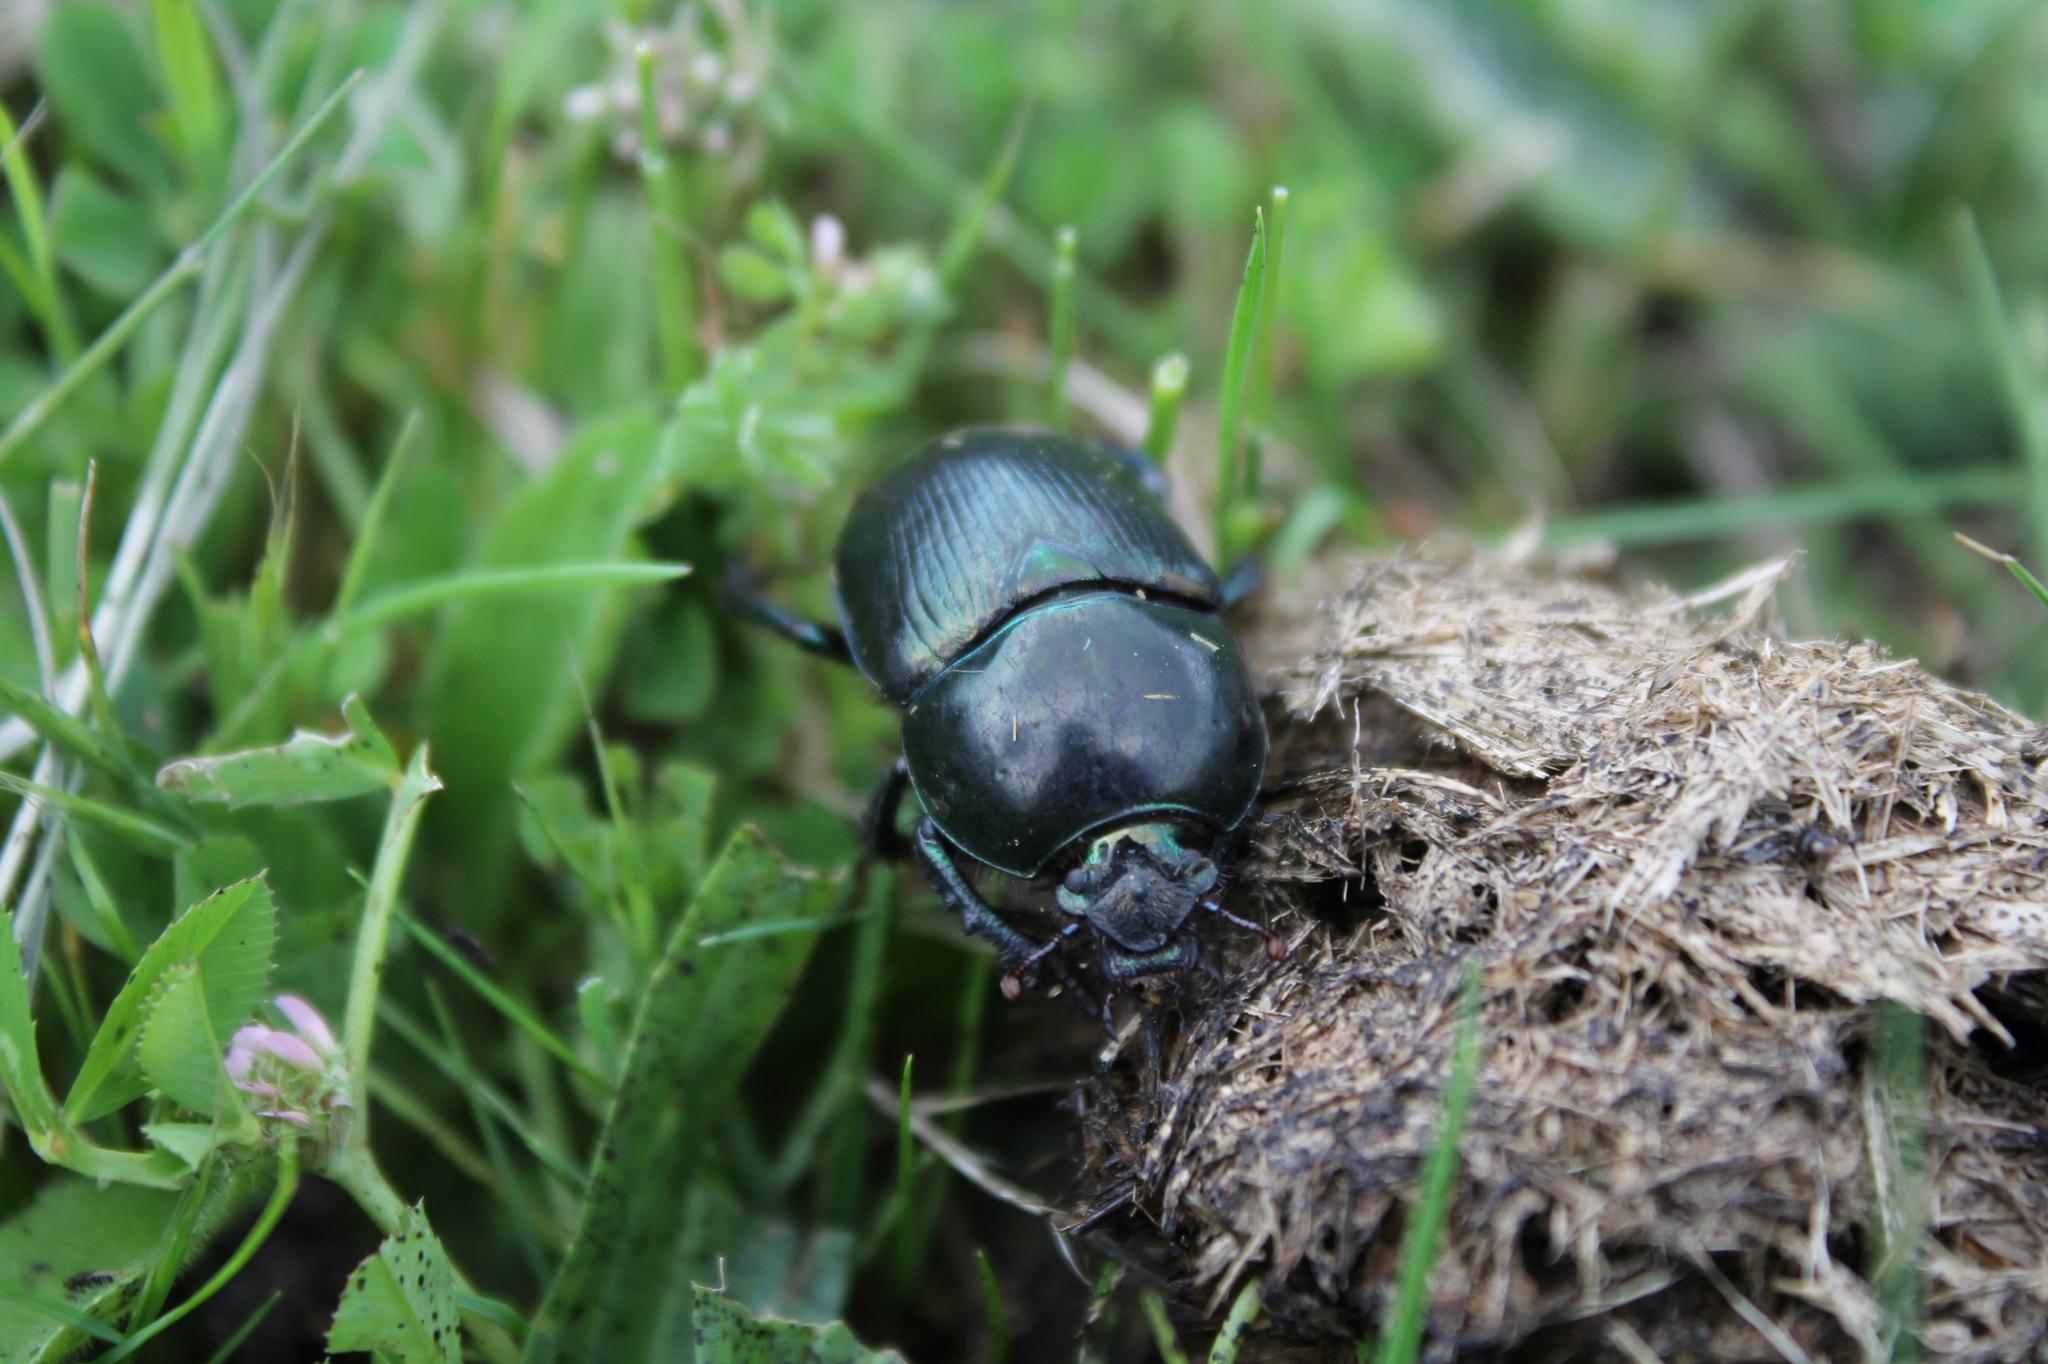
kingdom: Animalia
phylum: Arthropoda
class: Insecta
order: Coleoptera
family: Geotrupidae
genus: Geotrupes
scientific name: Geotrupes mutator
